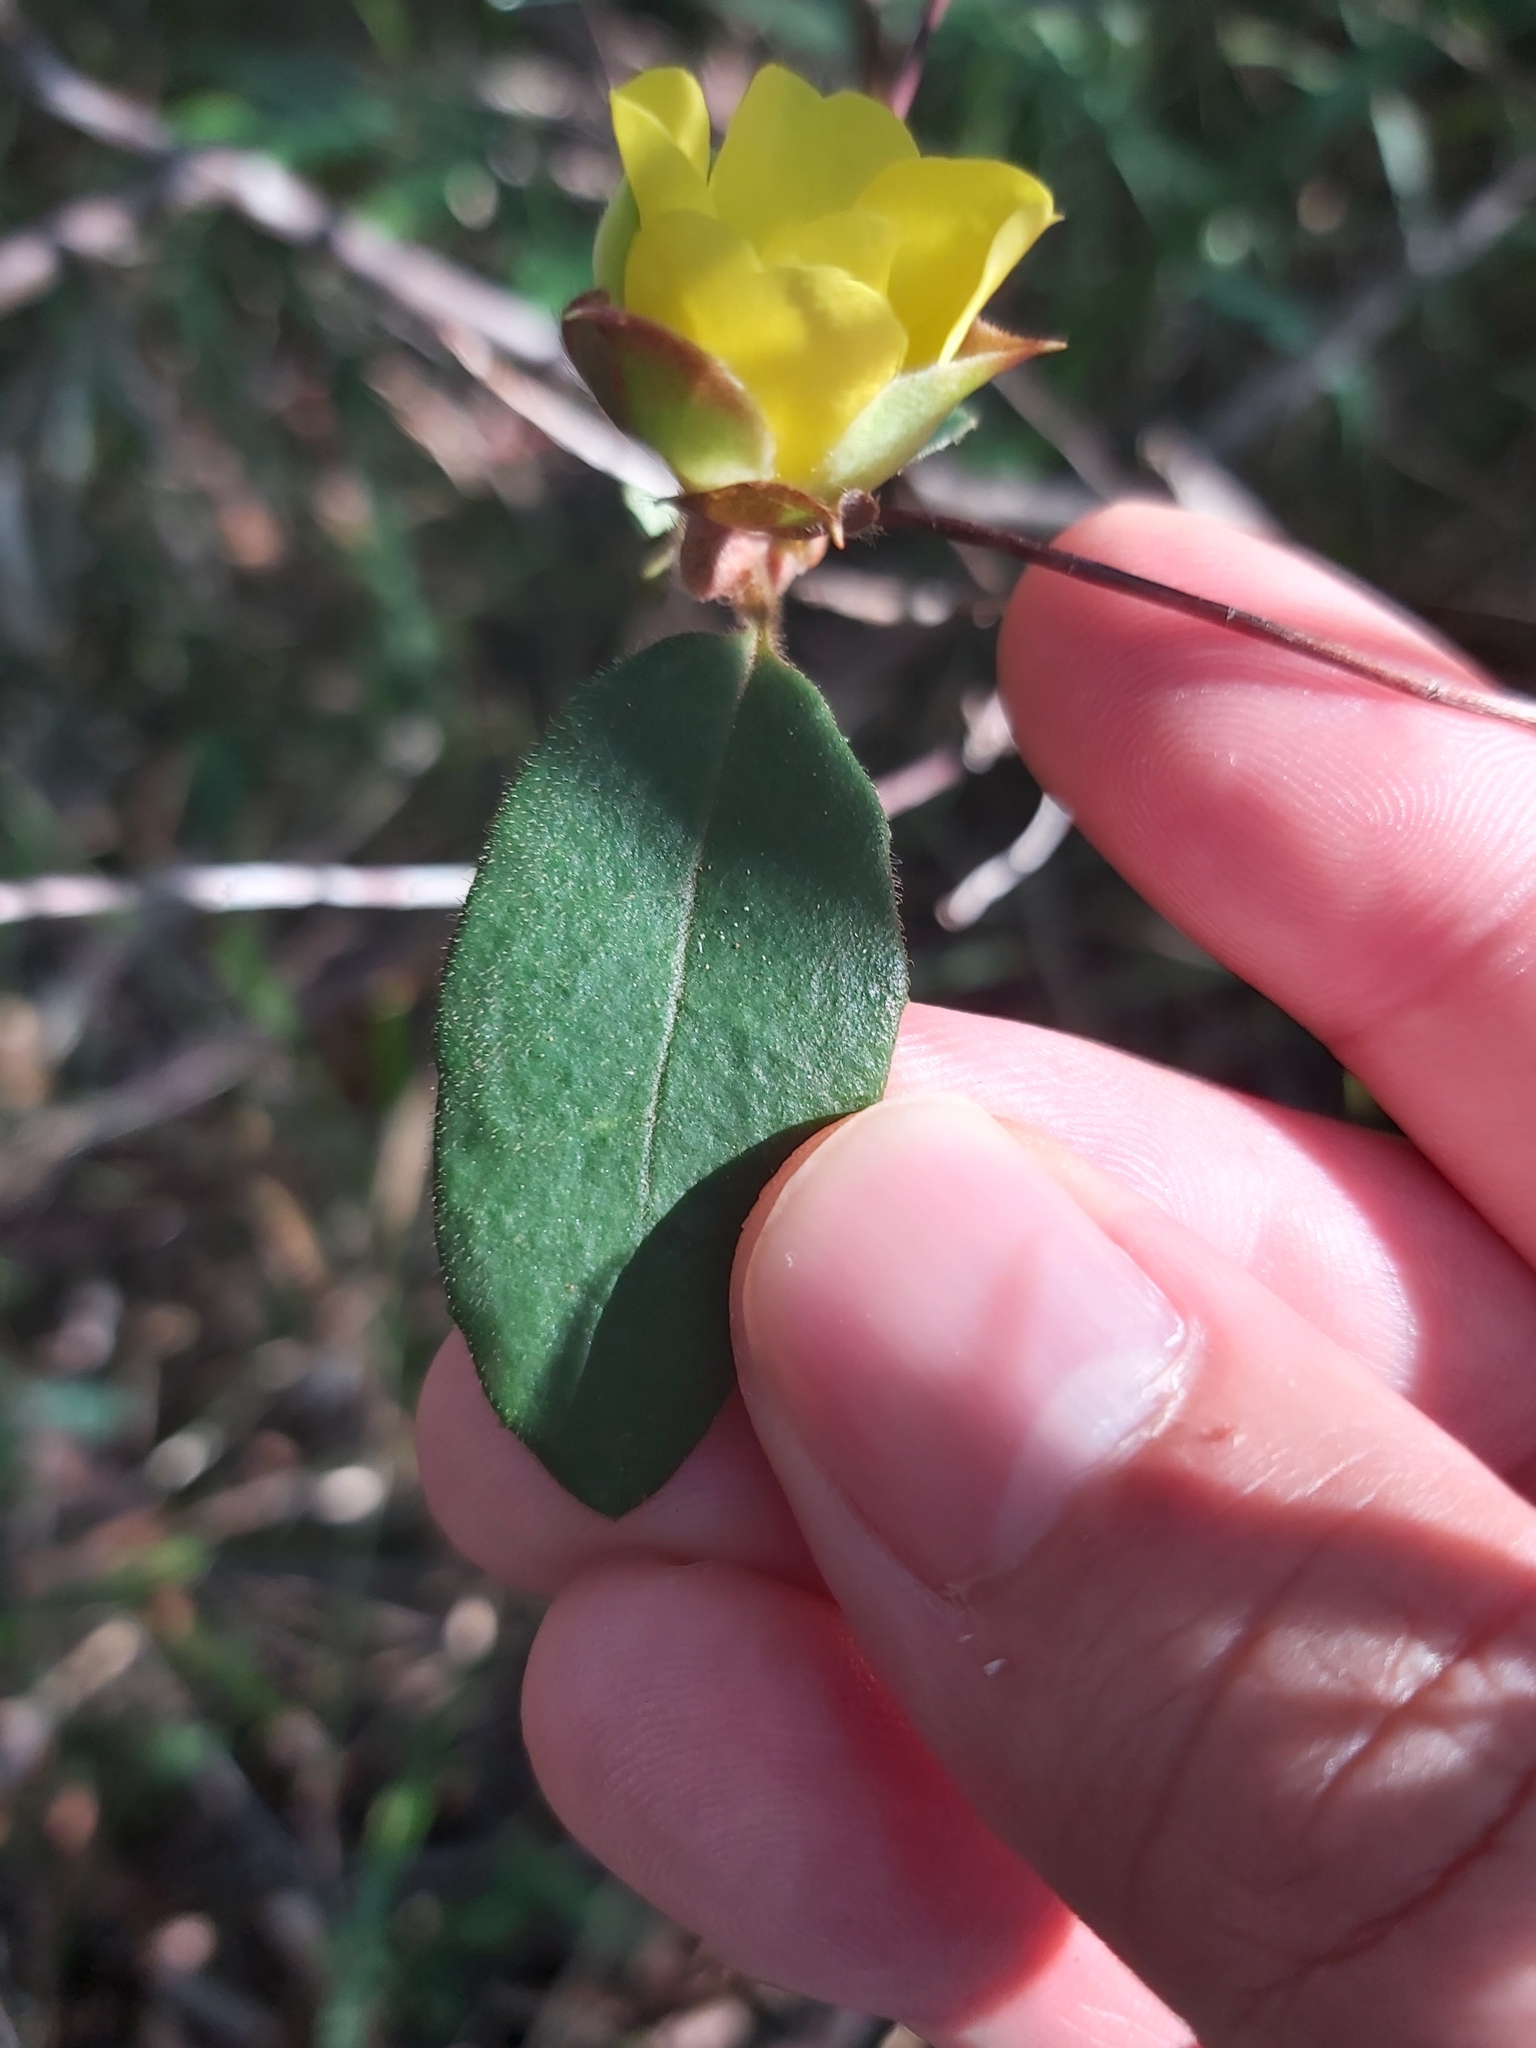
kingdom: Plantae
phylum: Tracheophyta
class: Magnoliopsida
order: Dilleniales
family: Dilleniaceae
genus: Hibbertia
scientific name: Hibbertia dentata
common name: Trailing guinea-flower
